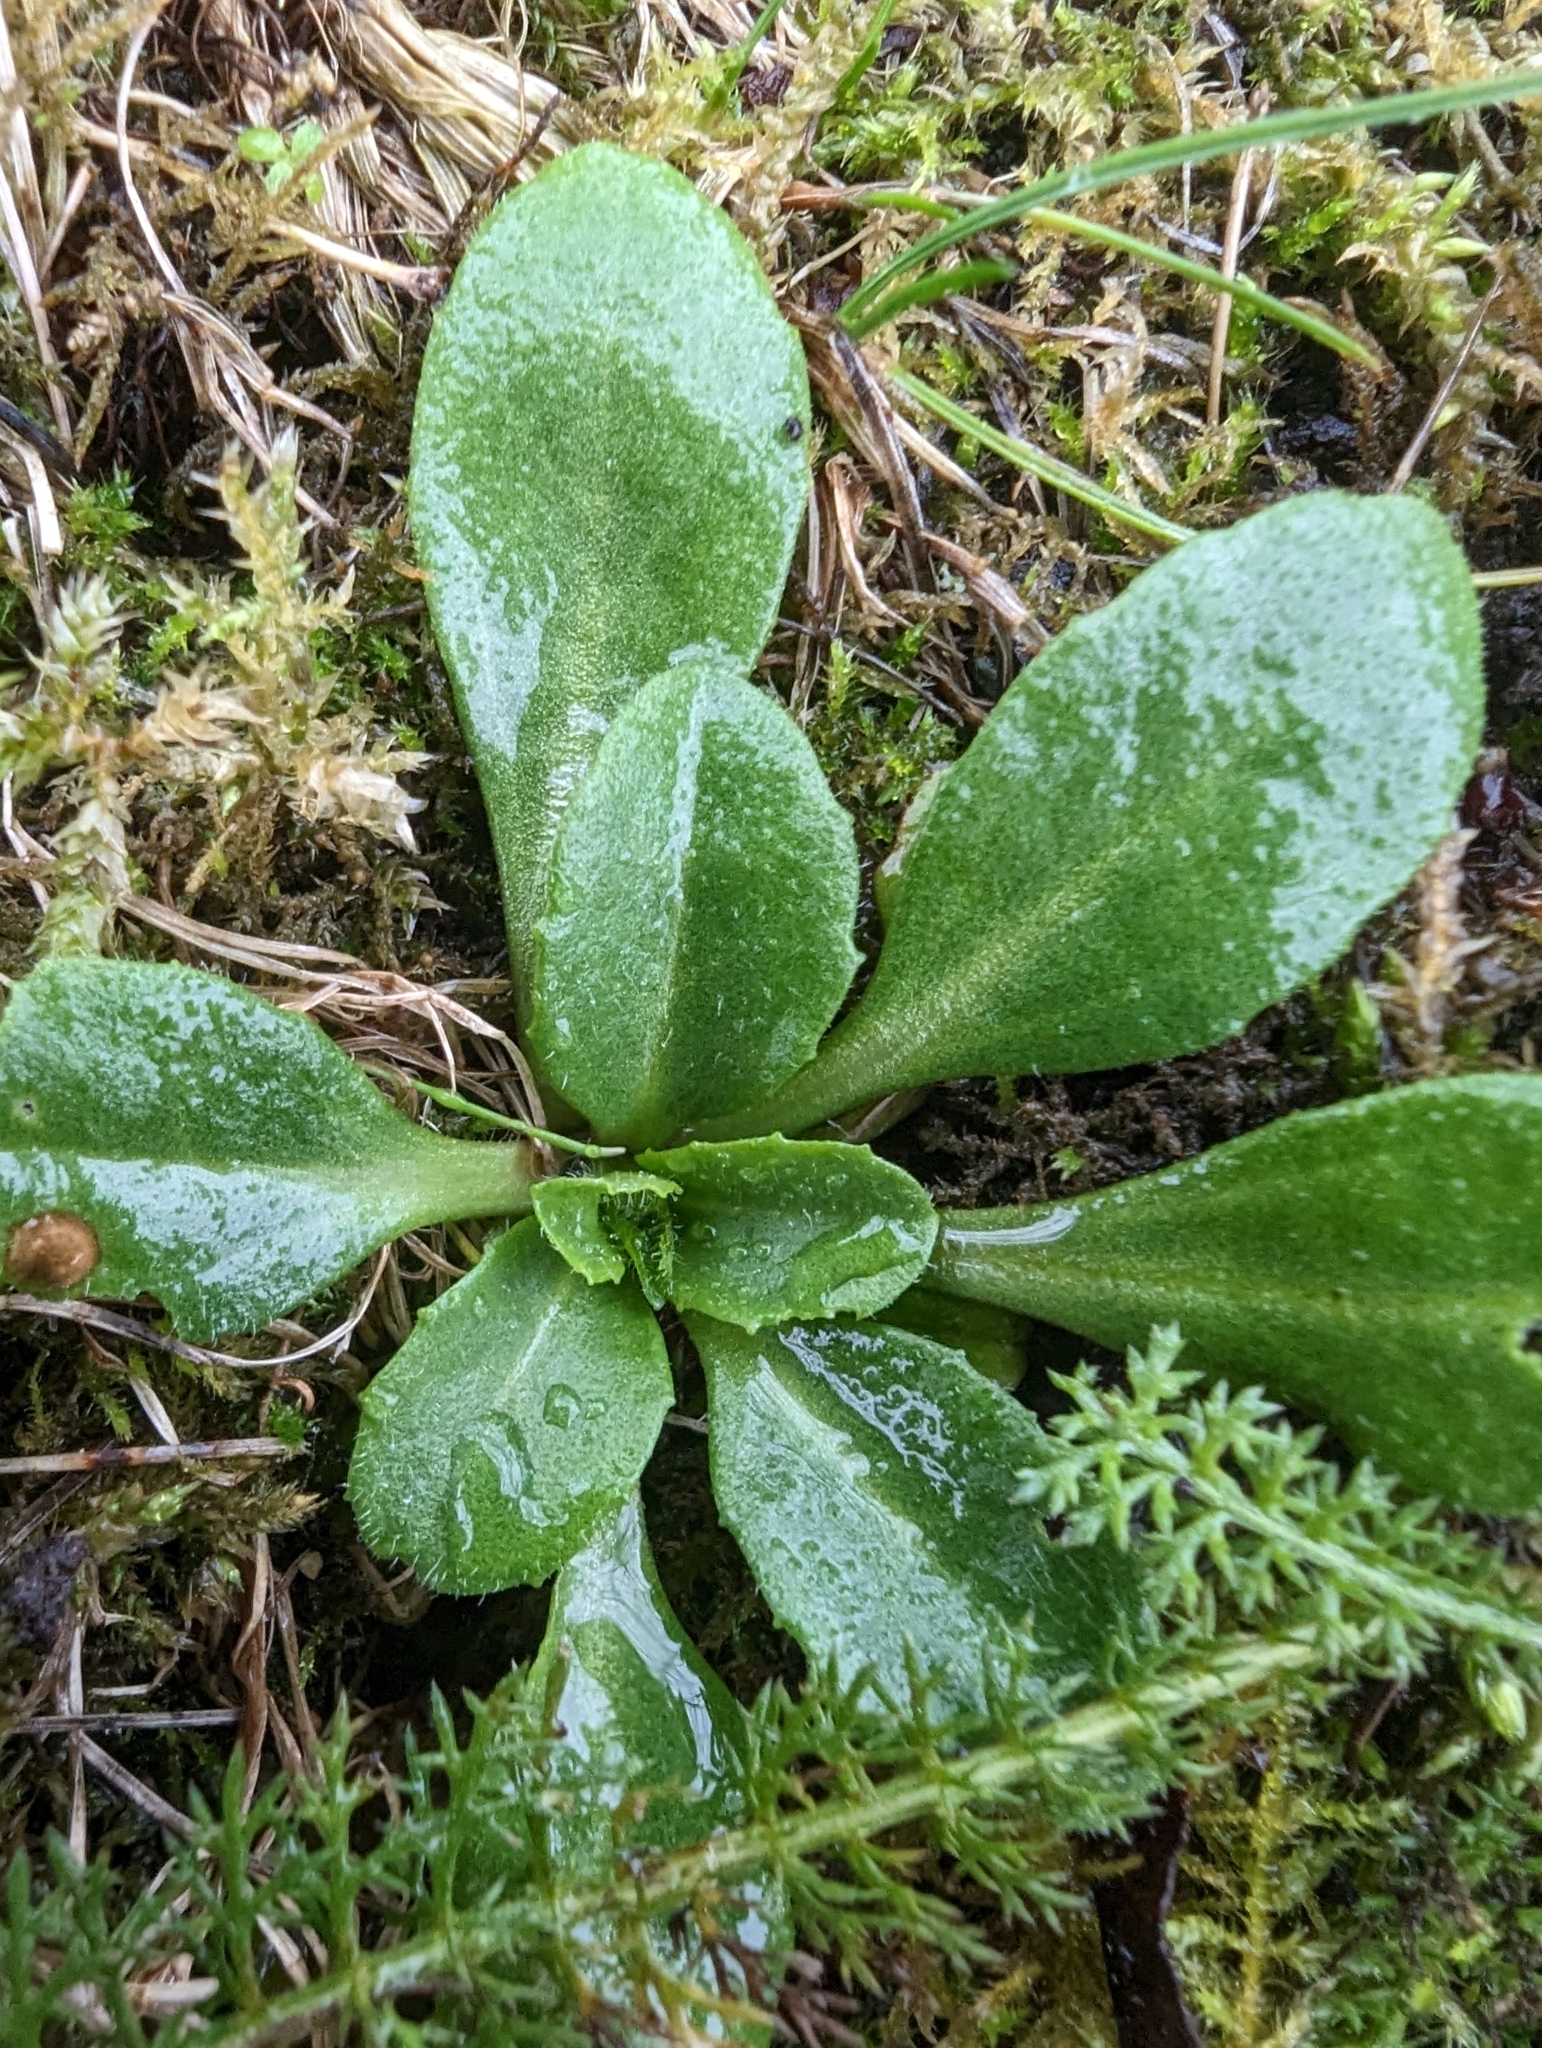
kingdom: Plantae
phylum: Tracheophyta
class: Magnoliopsida
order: Asterales
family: Asteraceae
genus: Bellis
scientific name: Bellis perennis
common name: Lawndaisy
